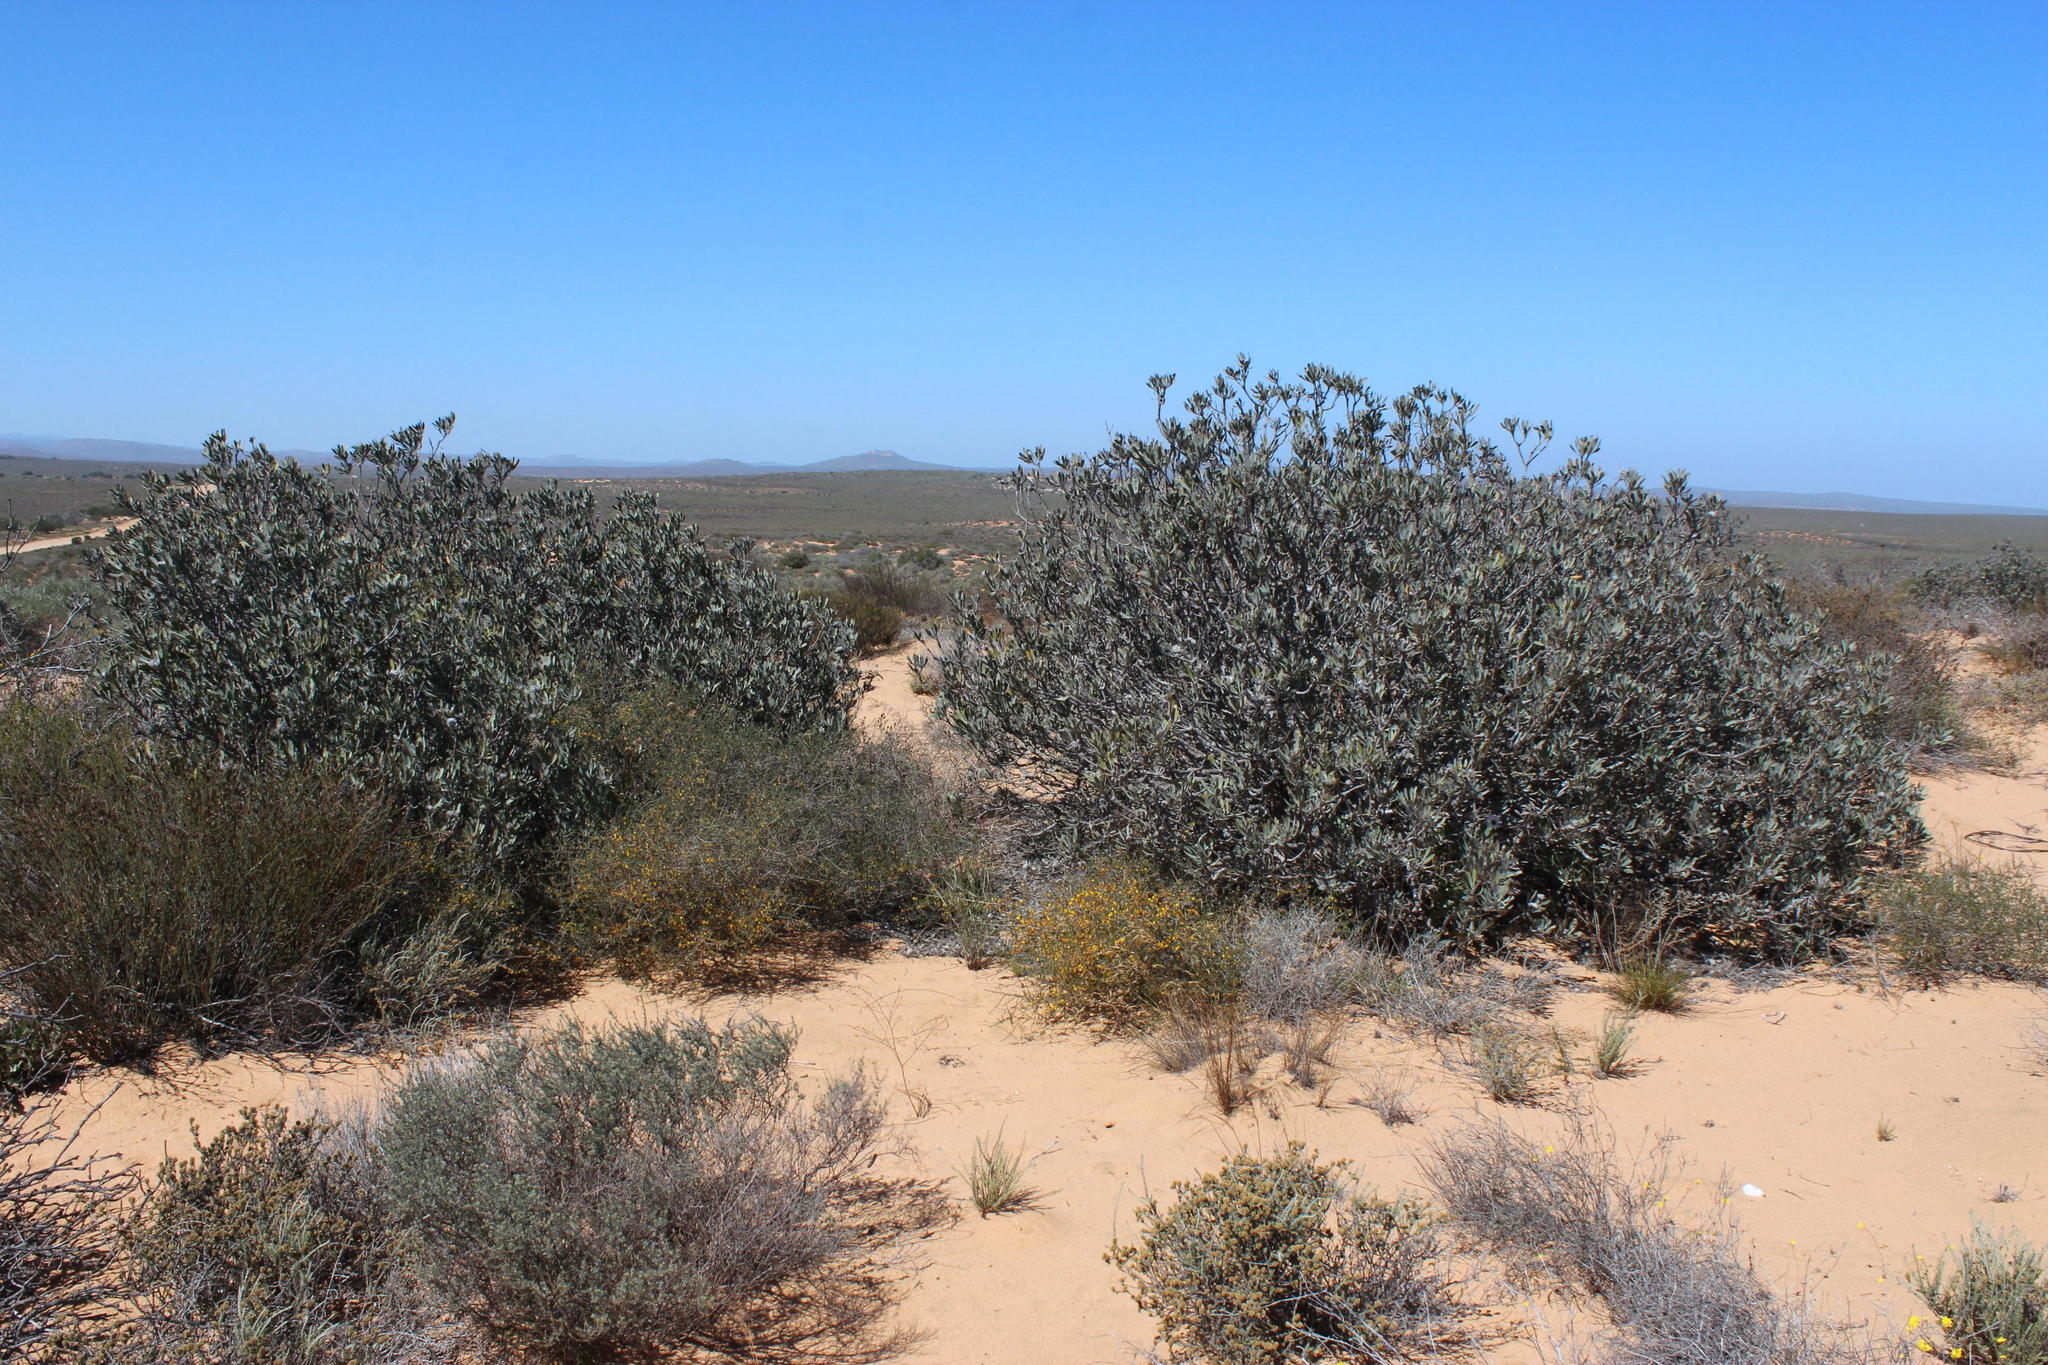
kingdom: Plantae
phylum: Tracheophyta
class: Magnoliopsida
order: Proteales
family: Proteaceae
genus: Leucospermum
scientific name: Leucospermum praemorsum
